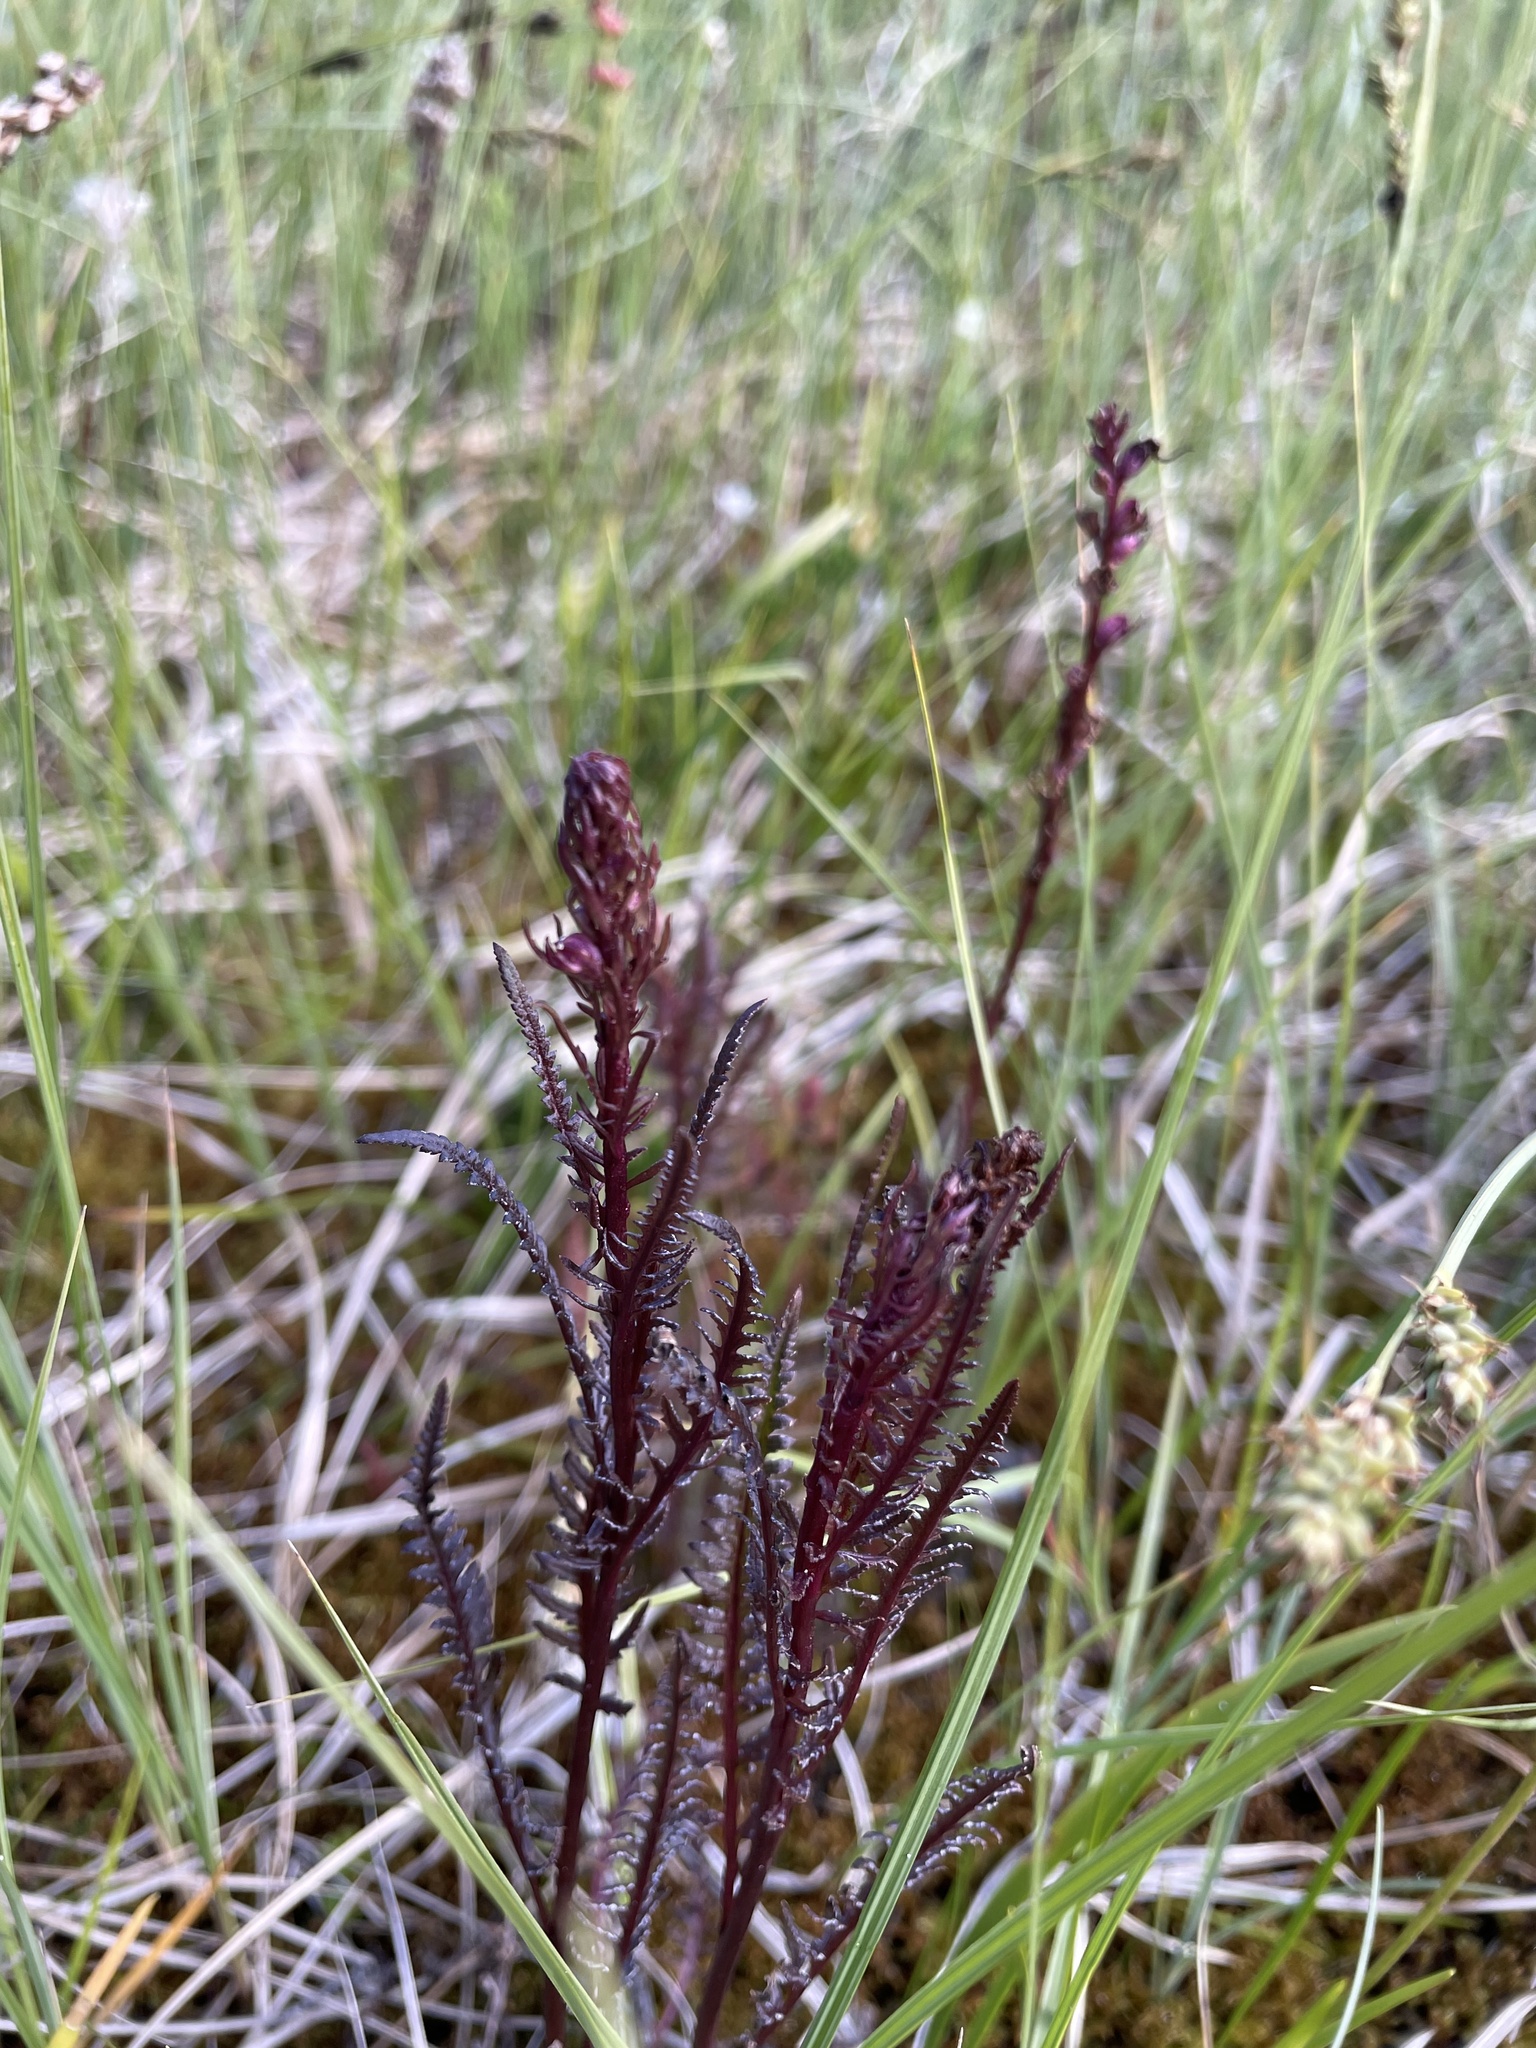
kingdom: Plantae
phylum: Tracheophyta
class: Magnoliopsida
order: Lamiales
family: Orobanchaceae
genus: Pedicularis
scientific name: Pedicularis groenlandica
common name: Elephant's-head
